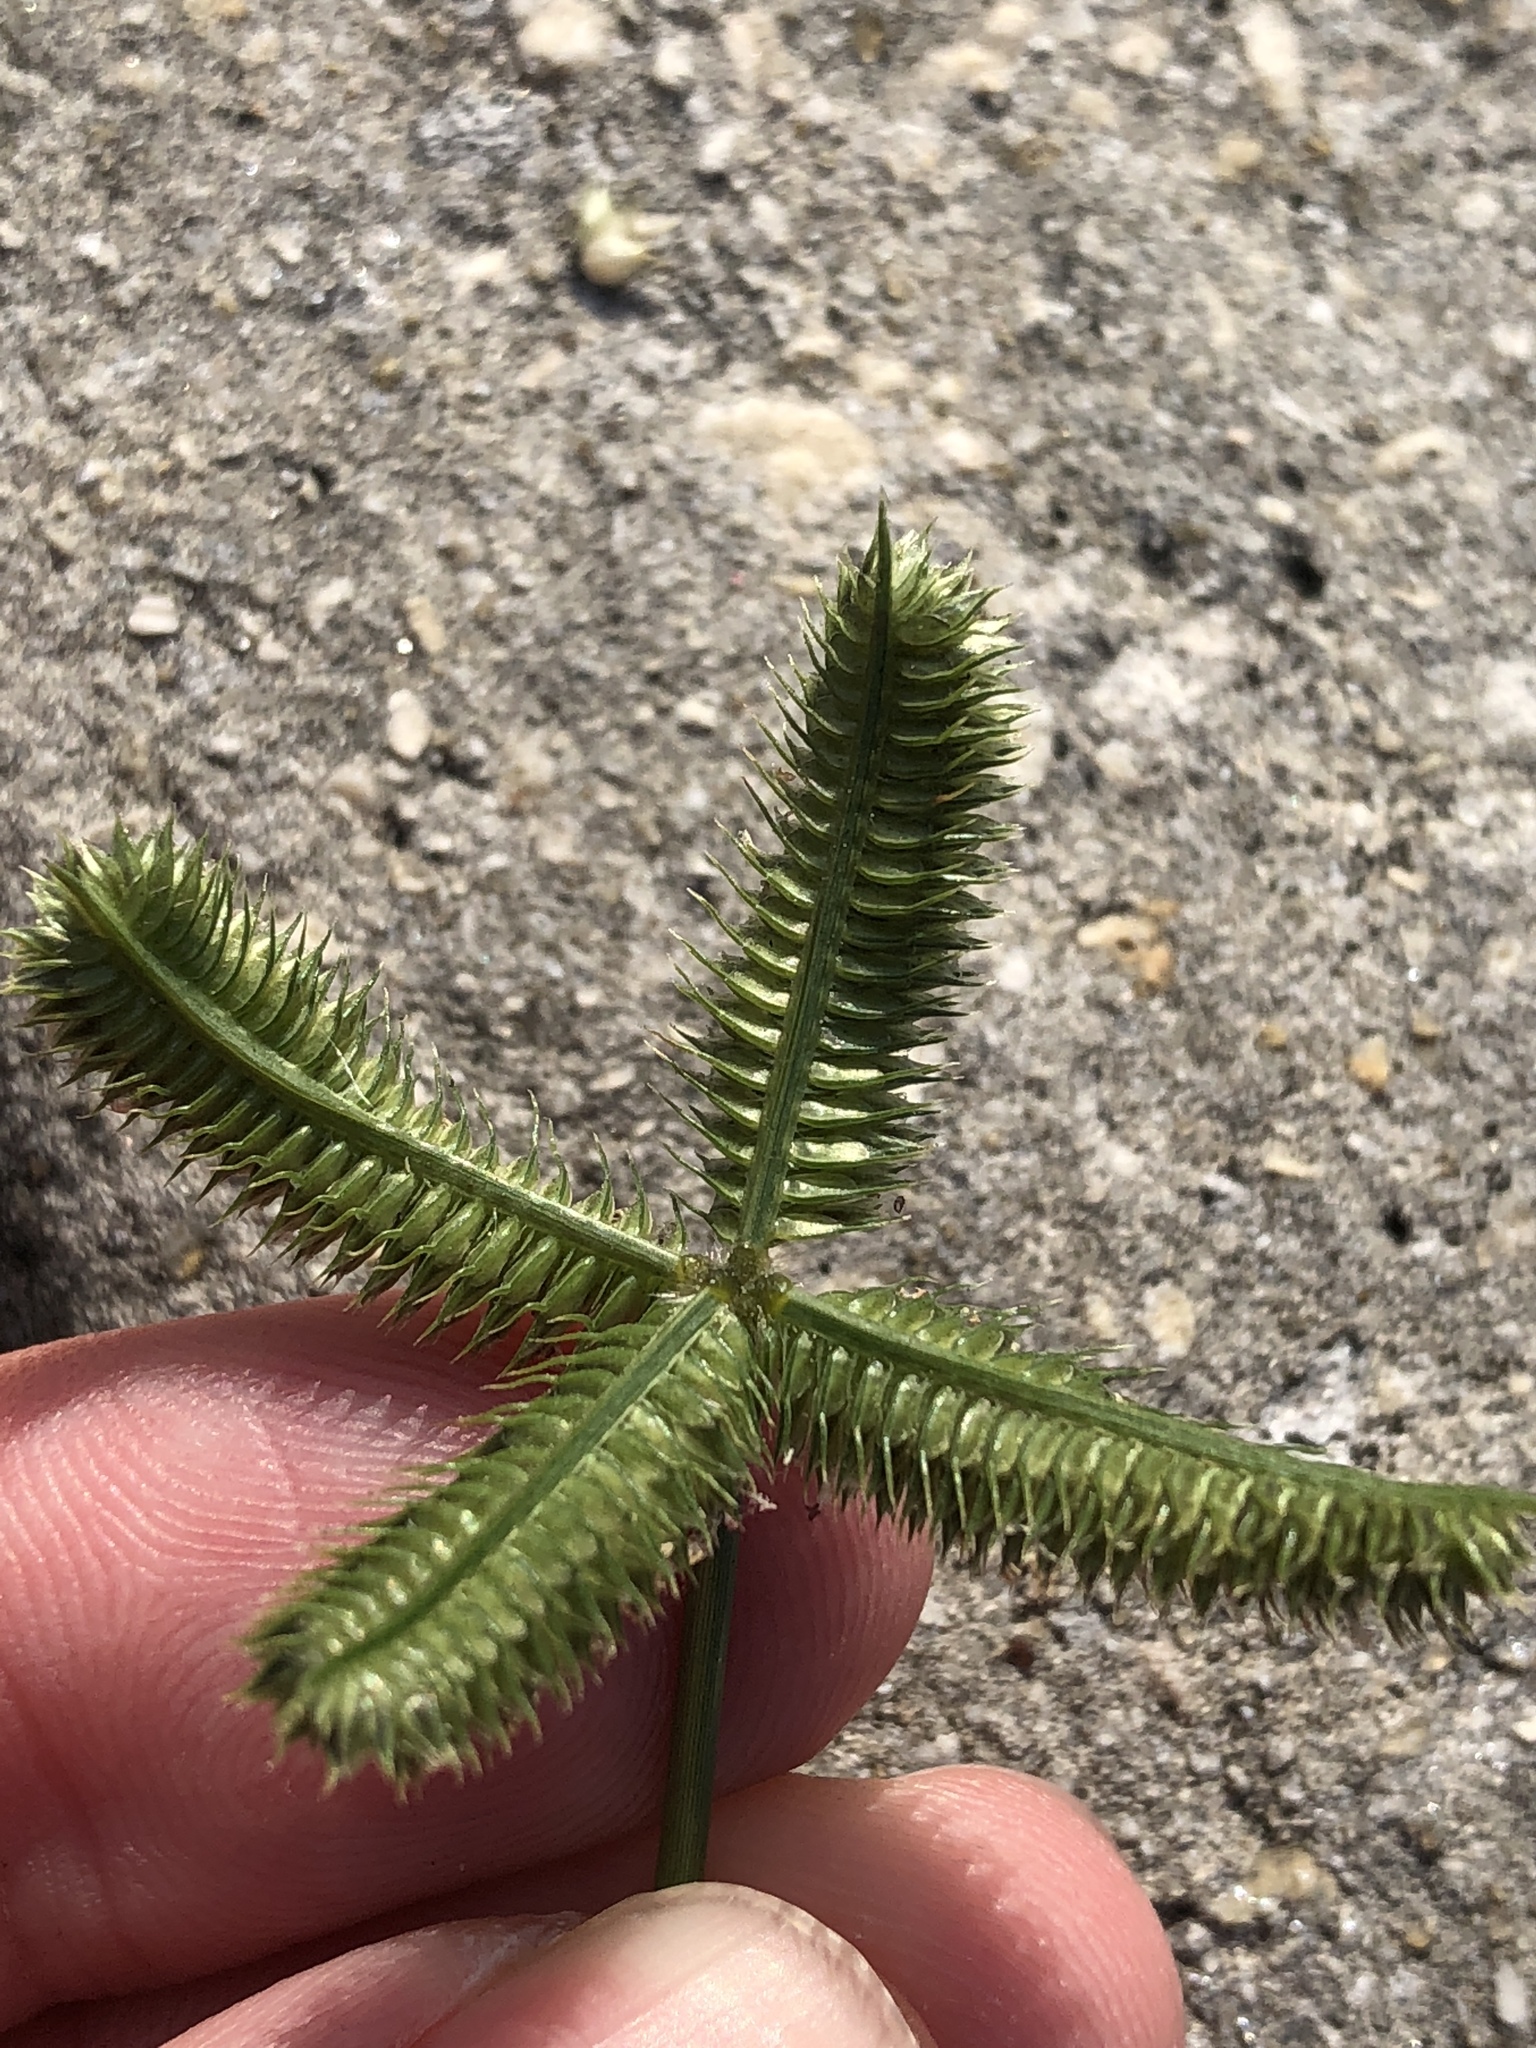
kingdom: Plantae
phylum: Tracheophyta
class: Liliopsida
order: Poales
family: Poaceae
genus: Dactyloctenium
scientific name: Dactyloctenium aegyptium
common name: Egyptian grass
